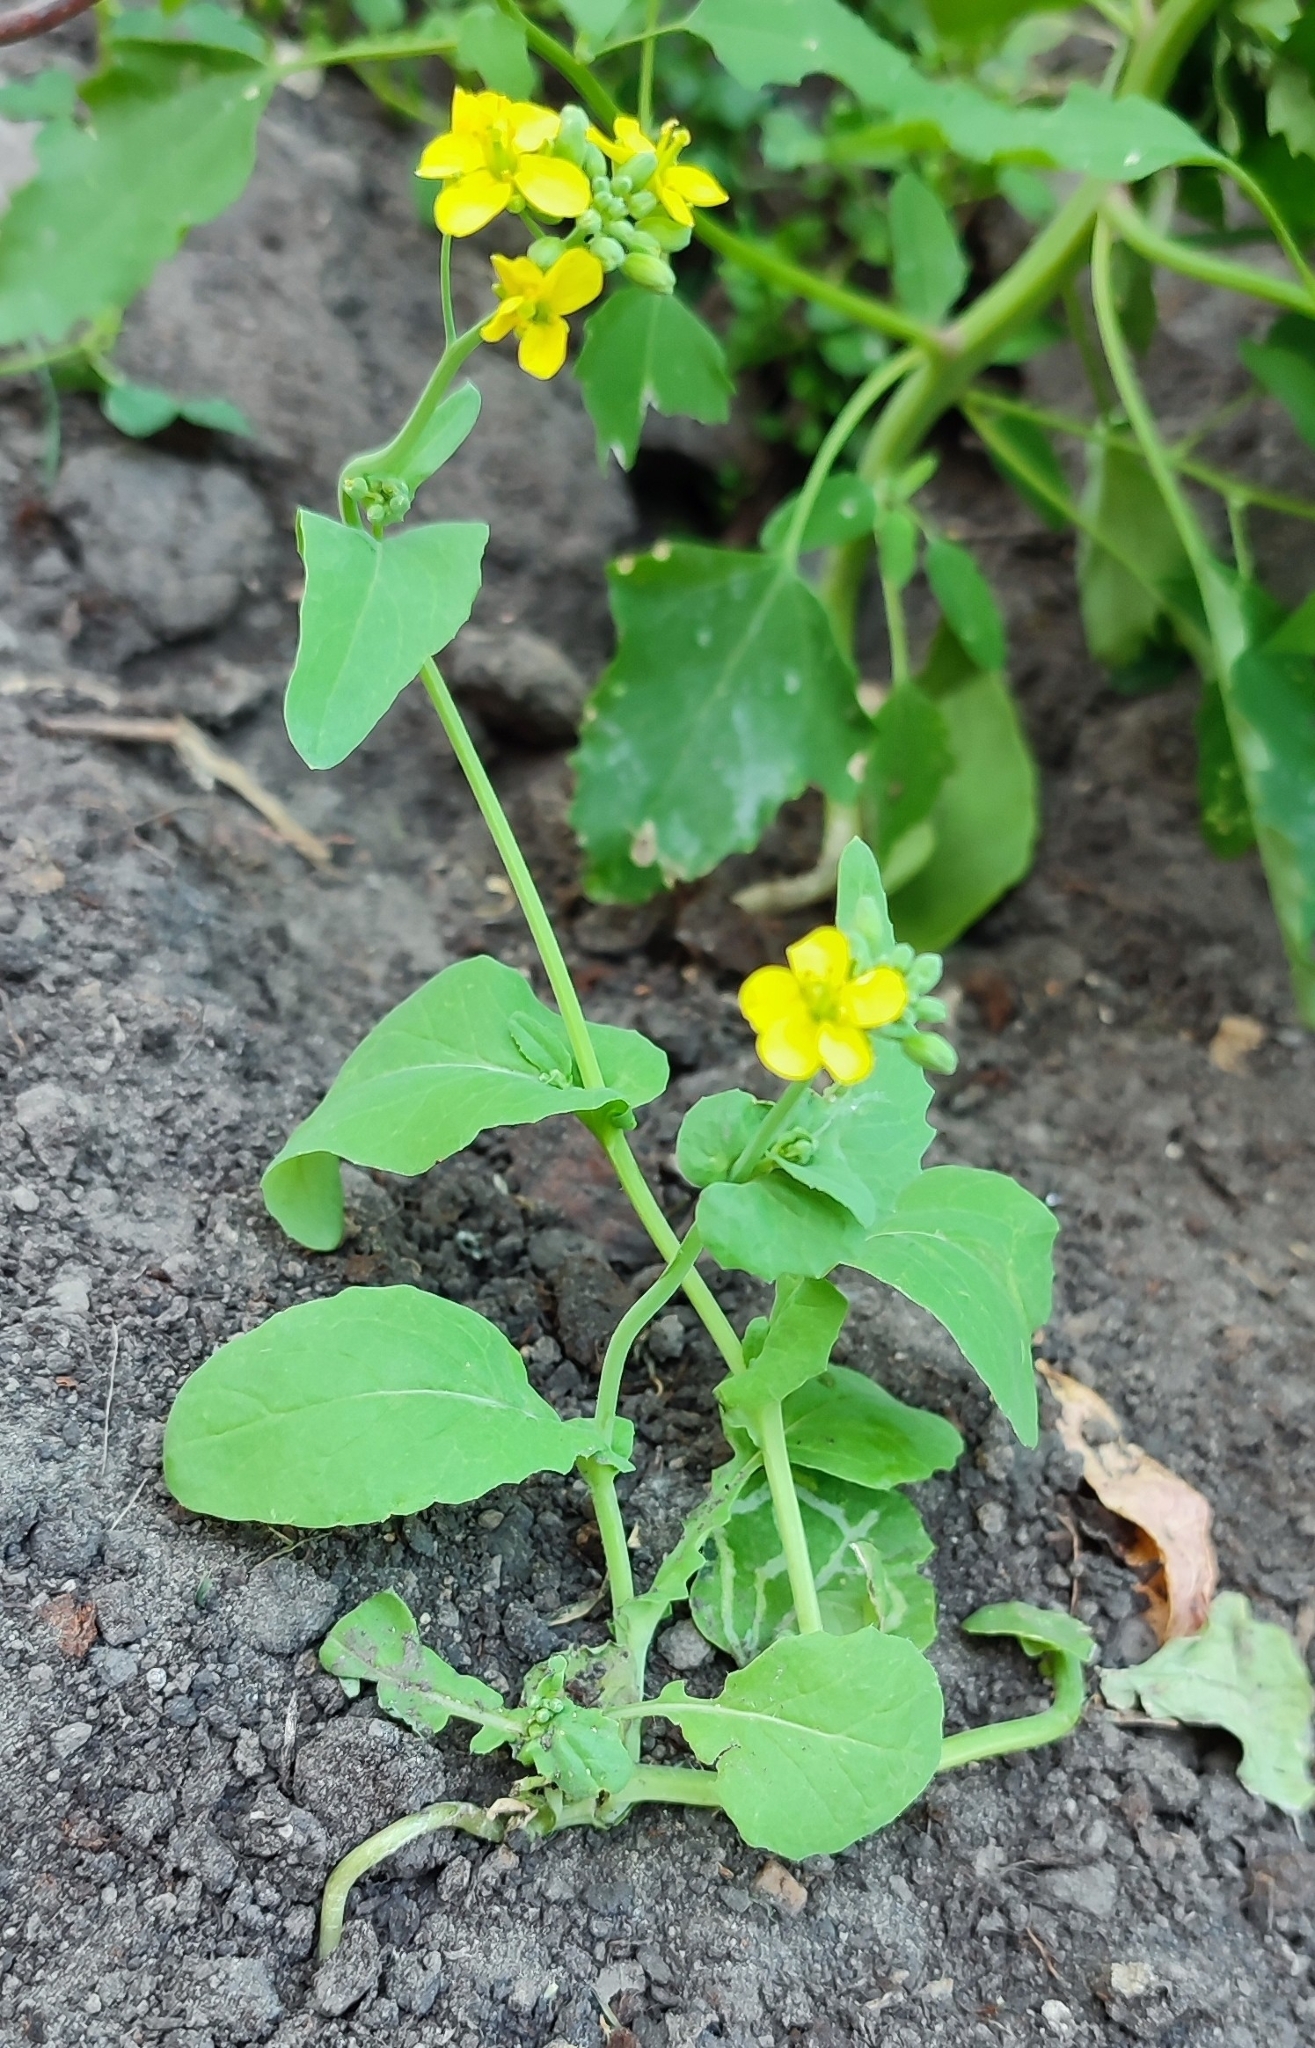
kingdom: Plantae
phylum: Tracheophyta
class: Magnoliopsida
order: Brassicales
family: Brassicaceae
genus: Brassica
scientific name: Brassica rapa
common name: Field mustard
